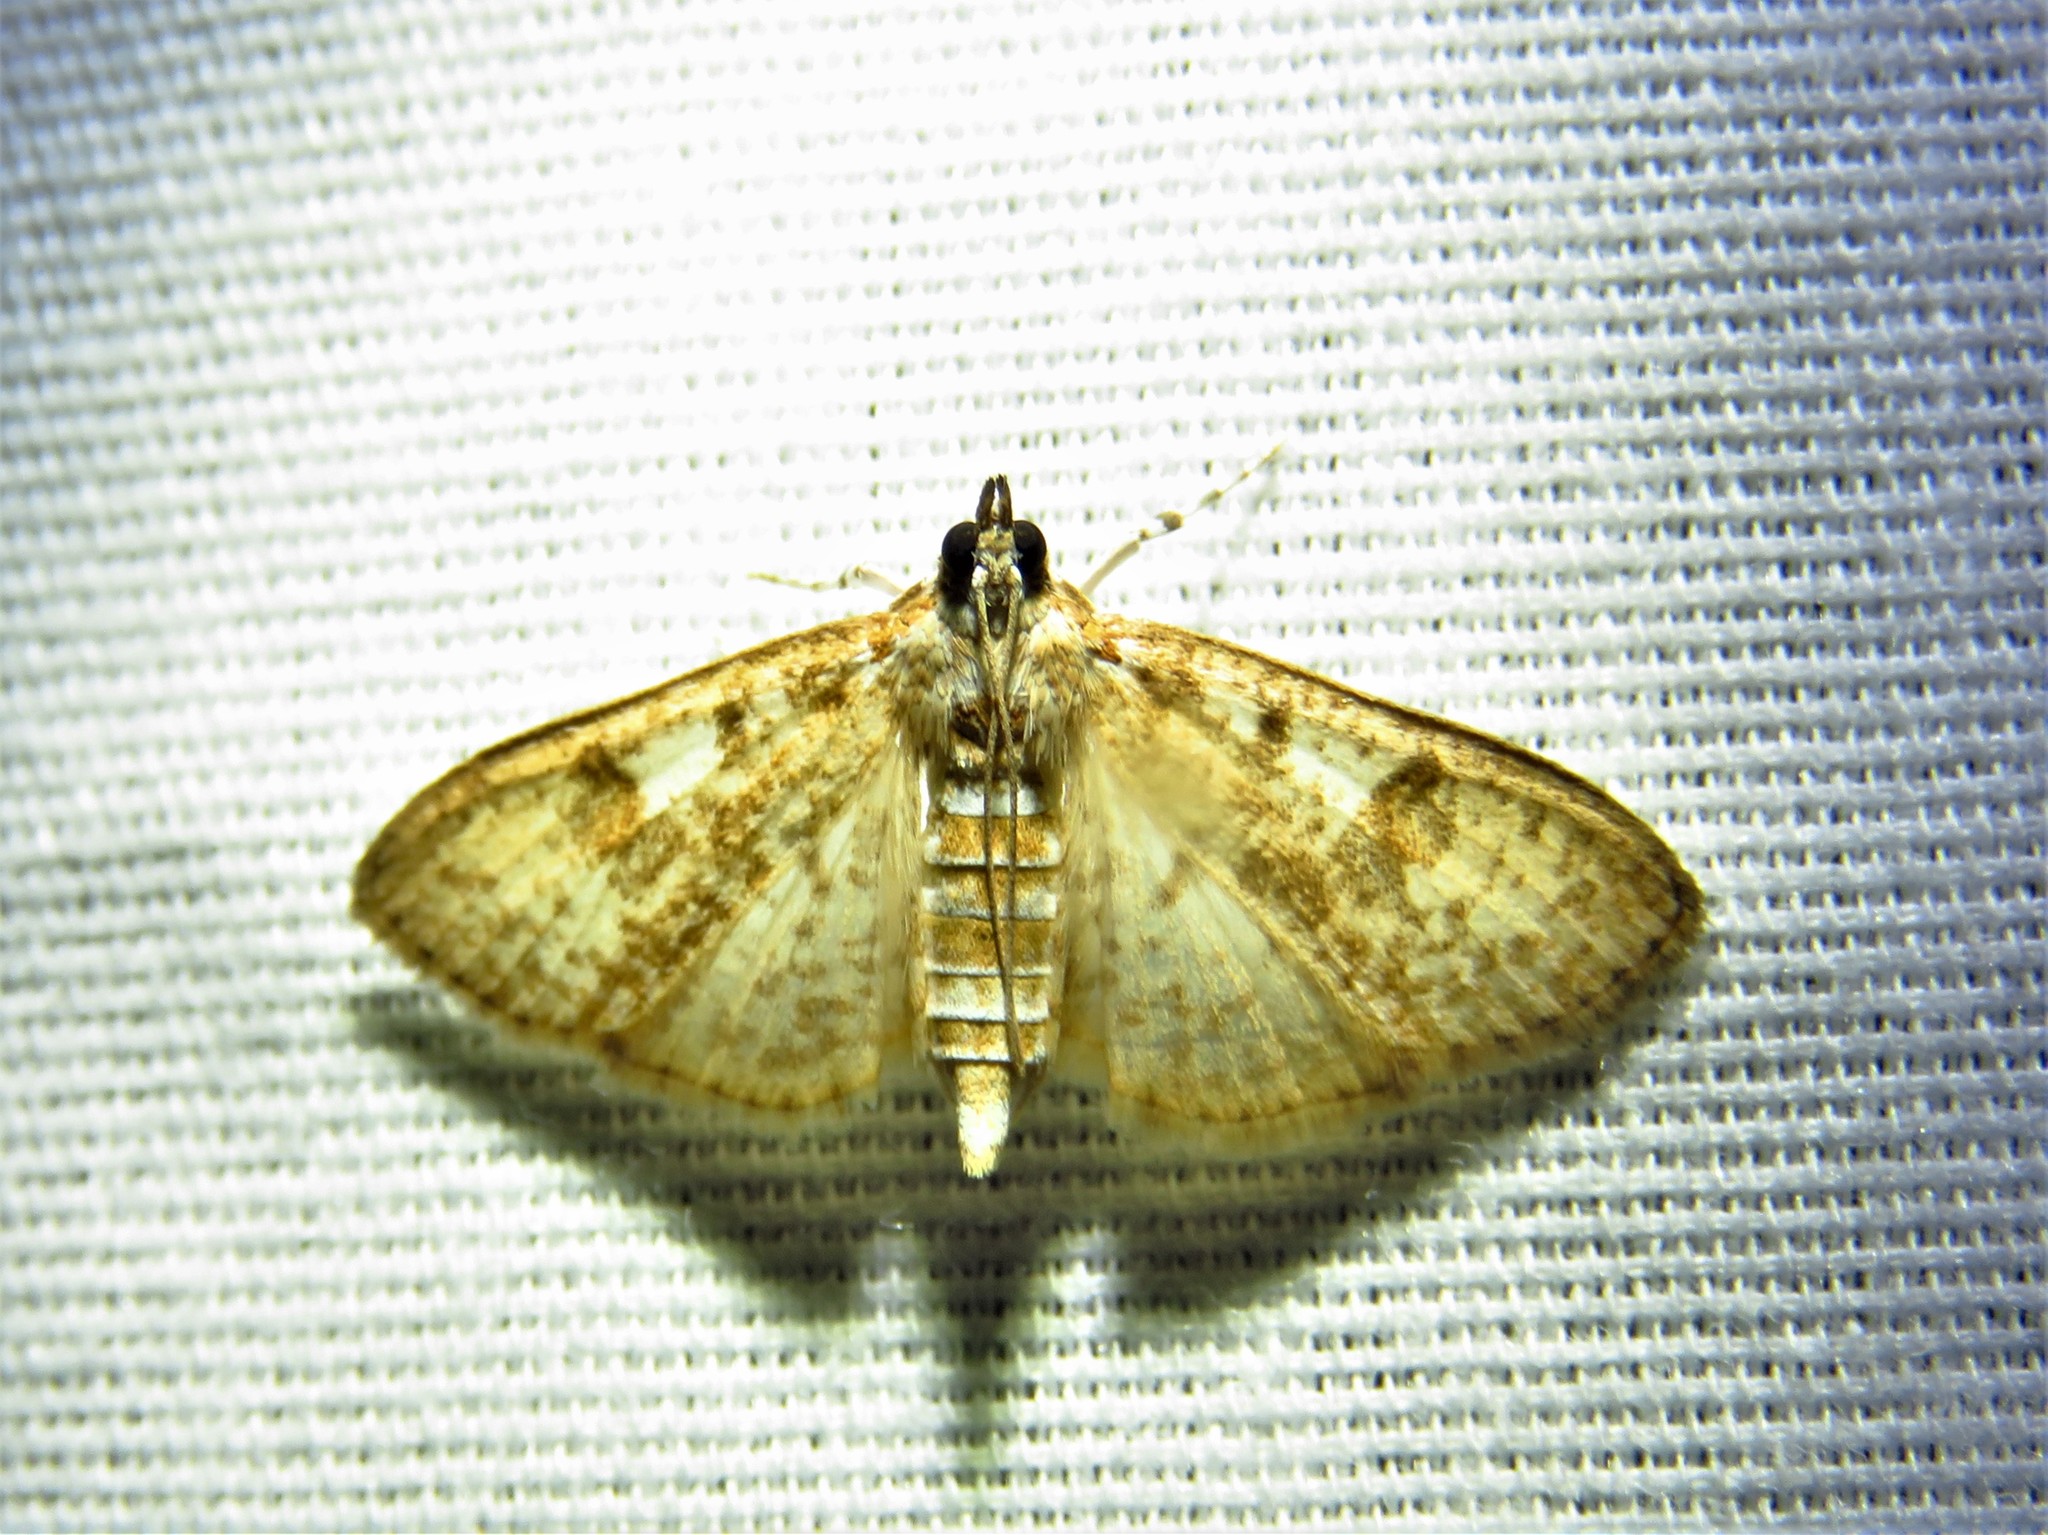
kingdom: Animalia
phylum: Arthropoda
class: Insecta
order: Lepidoptera
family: Crambidae
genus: Palpita
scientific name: Palpita freemanalis
